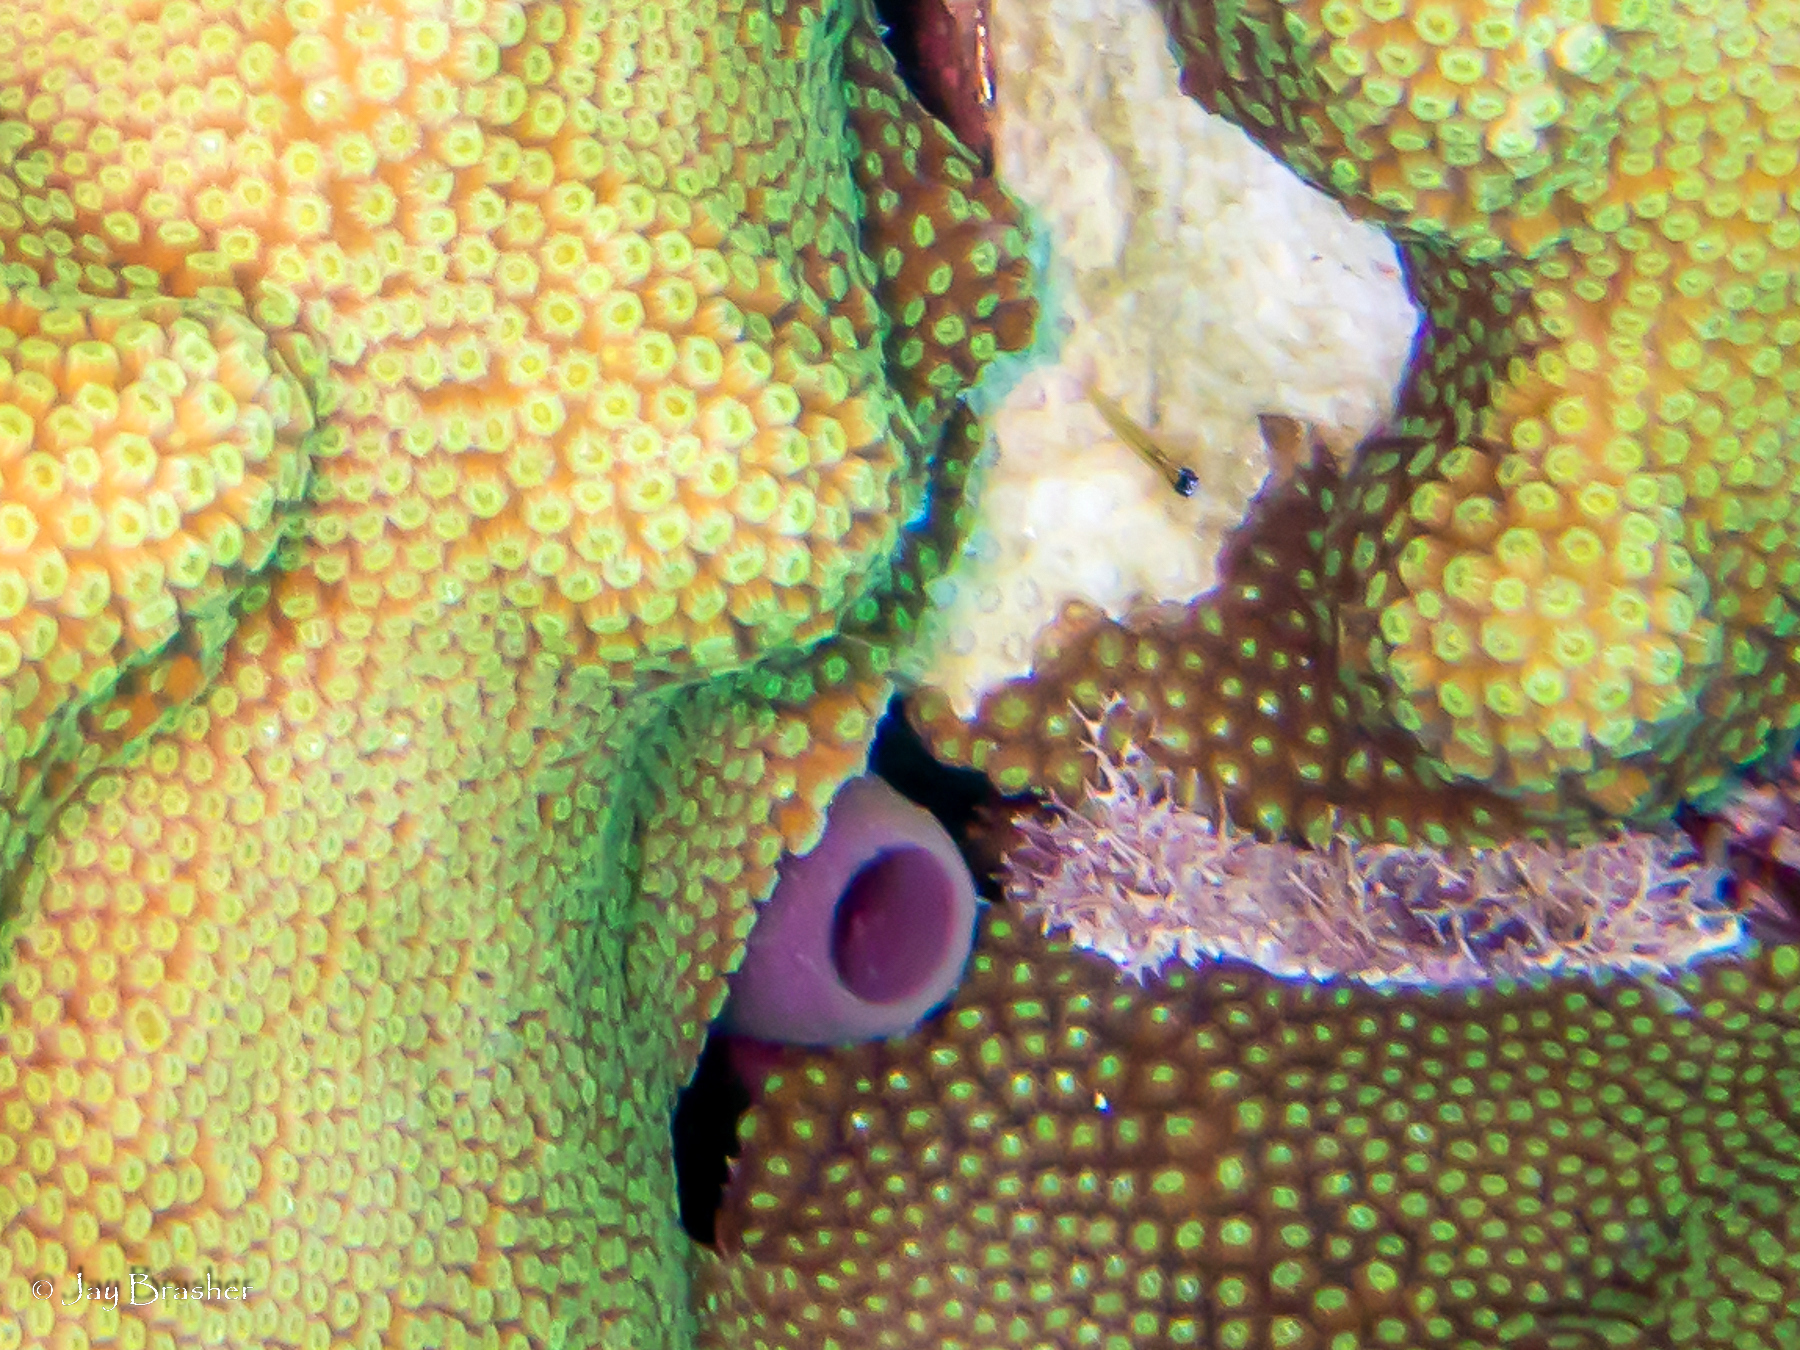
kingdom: Animalia
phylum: Porifera
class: Demospongiae
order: Haplosclerida
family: Callyspongiidae
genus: Callyspongia
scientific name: Callyspongia fallax
